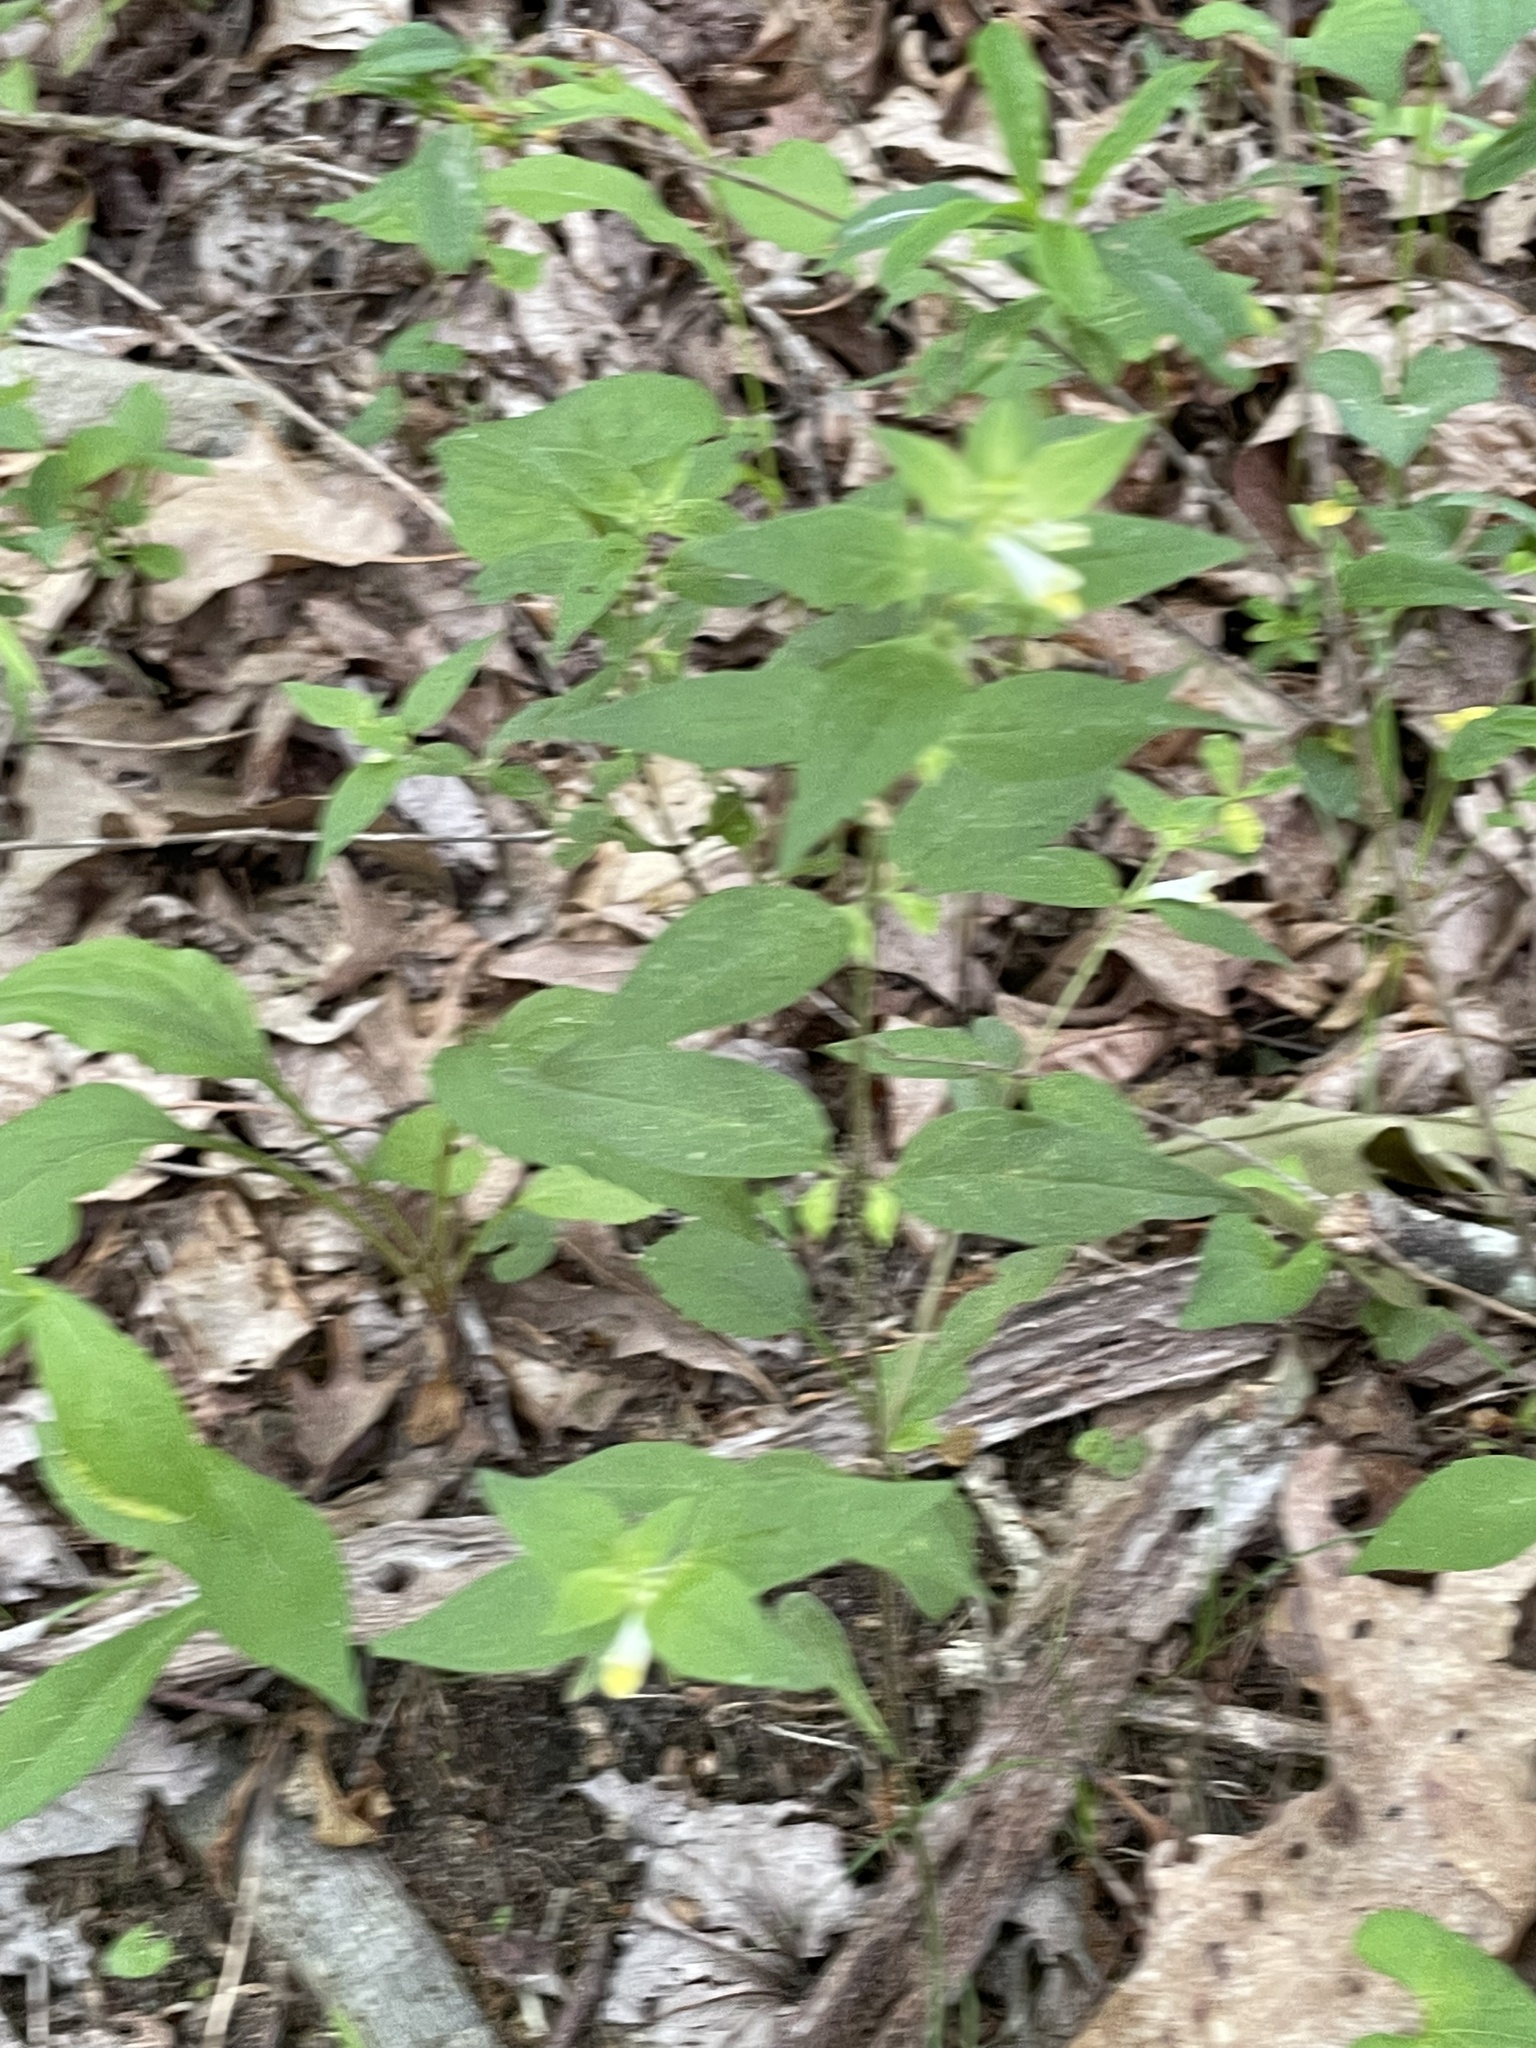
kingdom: Plantae
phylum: Tracheophyta
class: Magnoliopsida
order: Lamiales
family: Orobanchaceae
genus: Melampyrum
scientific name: Melampyrum lineare
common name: American cow-wheat
